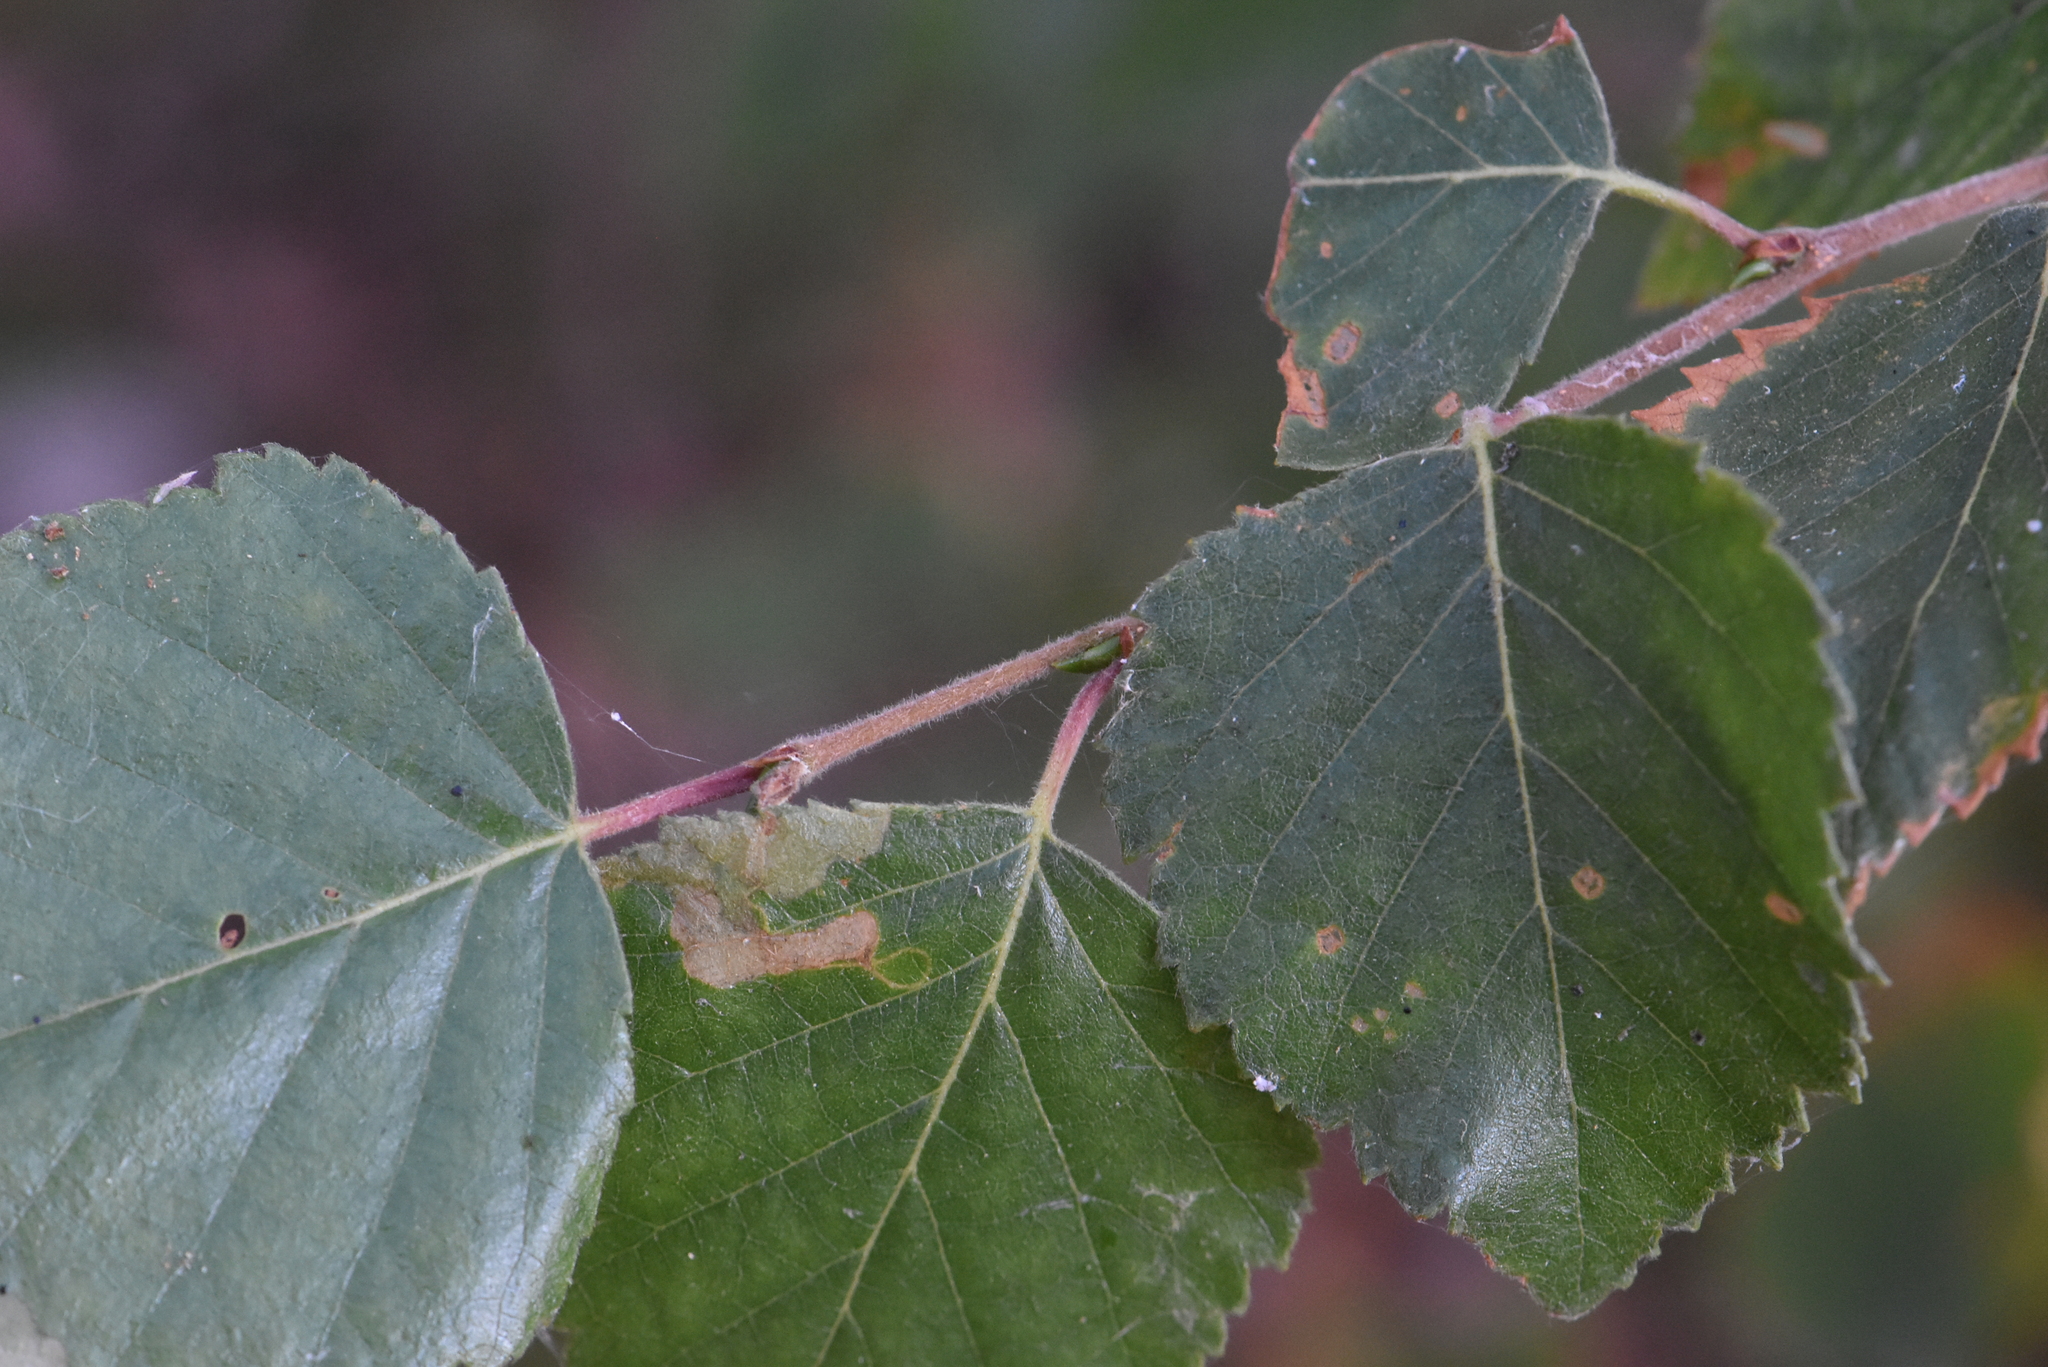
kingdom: Plantae
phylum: Tracheophyta
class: Magnoliopsida
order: Fagales
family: Betulaceae
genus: Betula
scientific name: Betula pubescens
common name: Downy birch
